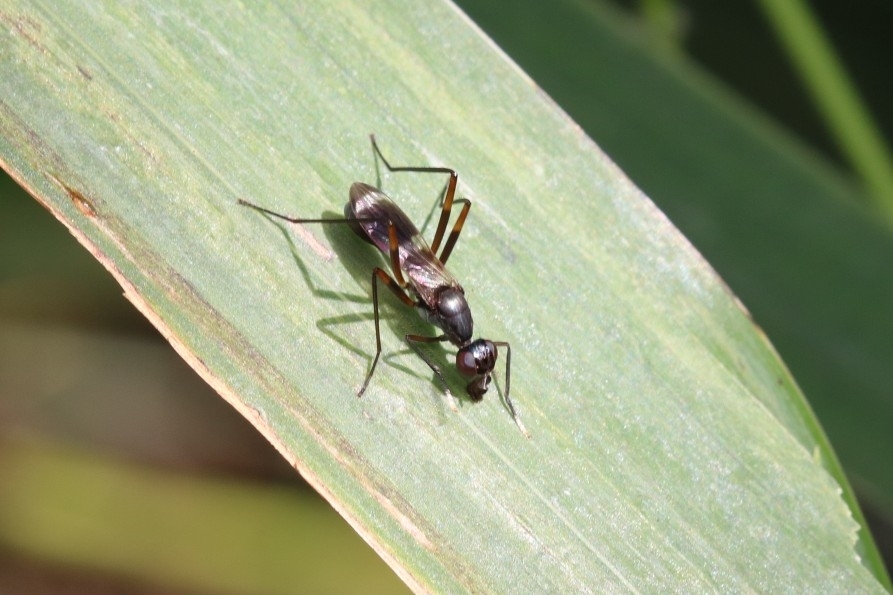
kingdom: Animalia
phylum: Arthropoda
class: Insecta
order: Diptera
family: Micropezidae
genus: Taeniaptera
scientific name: Taeniaptera trivittata
